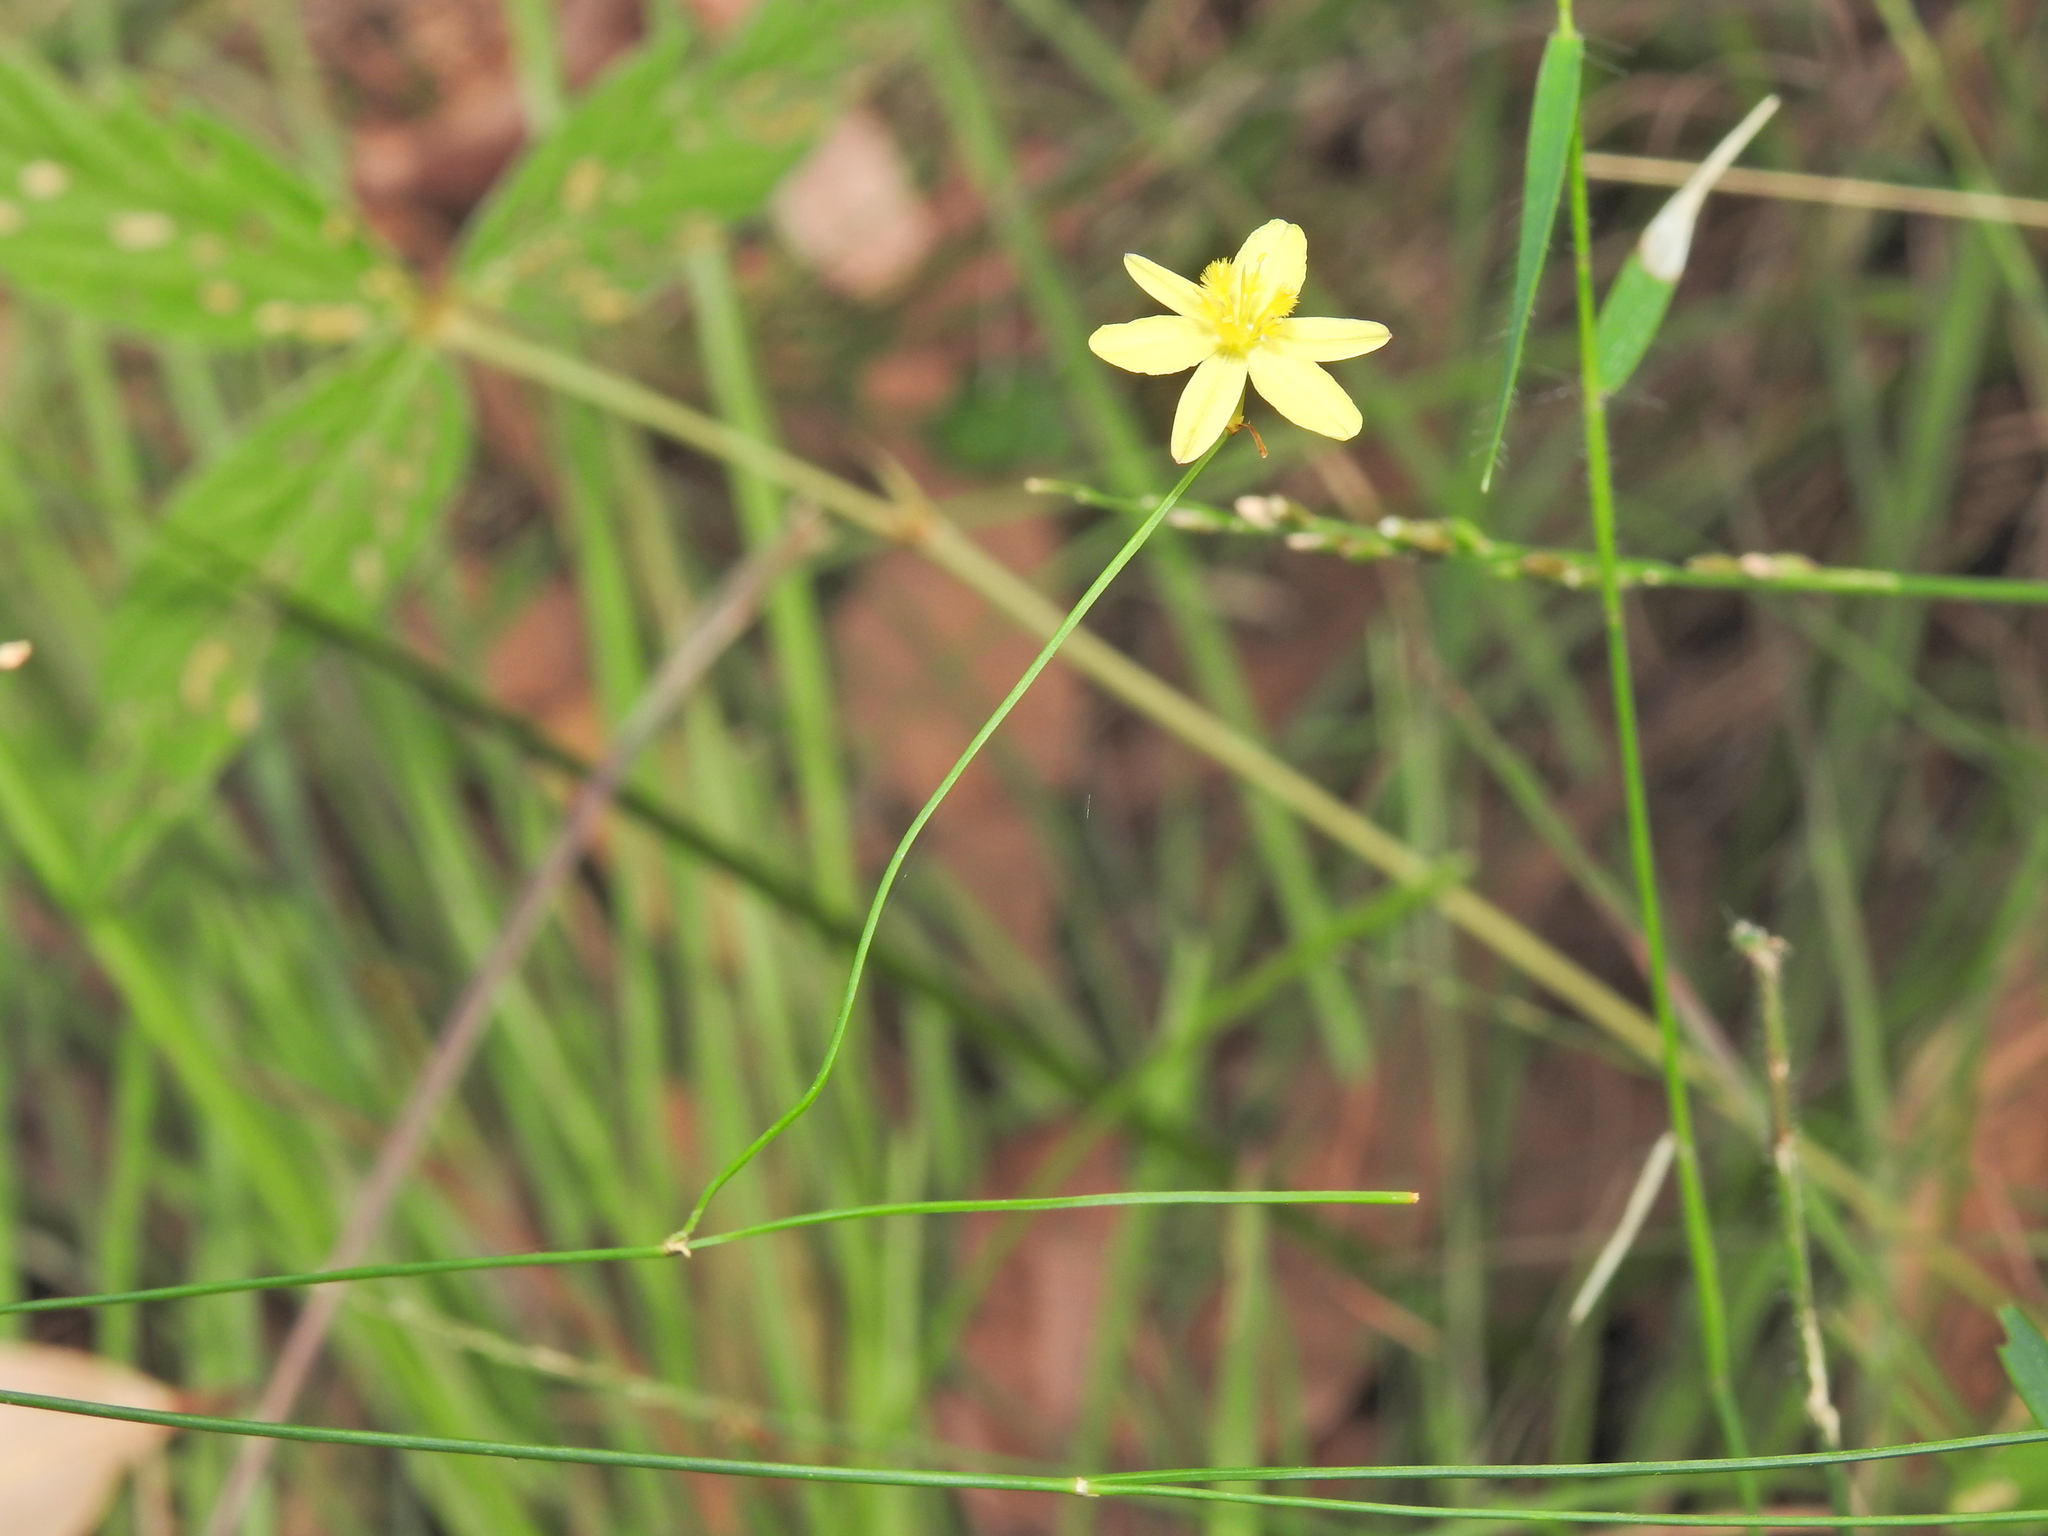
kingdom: Plantae
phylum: Tracheophyta
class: Liliopsida
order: Asparagales
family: Asphodelaceae
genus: Tricoryne
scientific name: Tricoryne elatior
